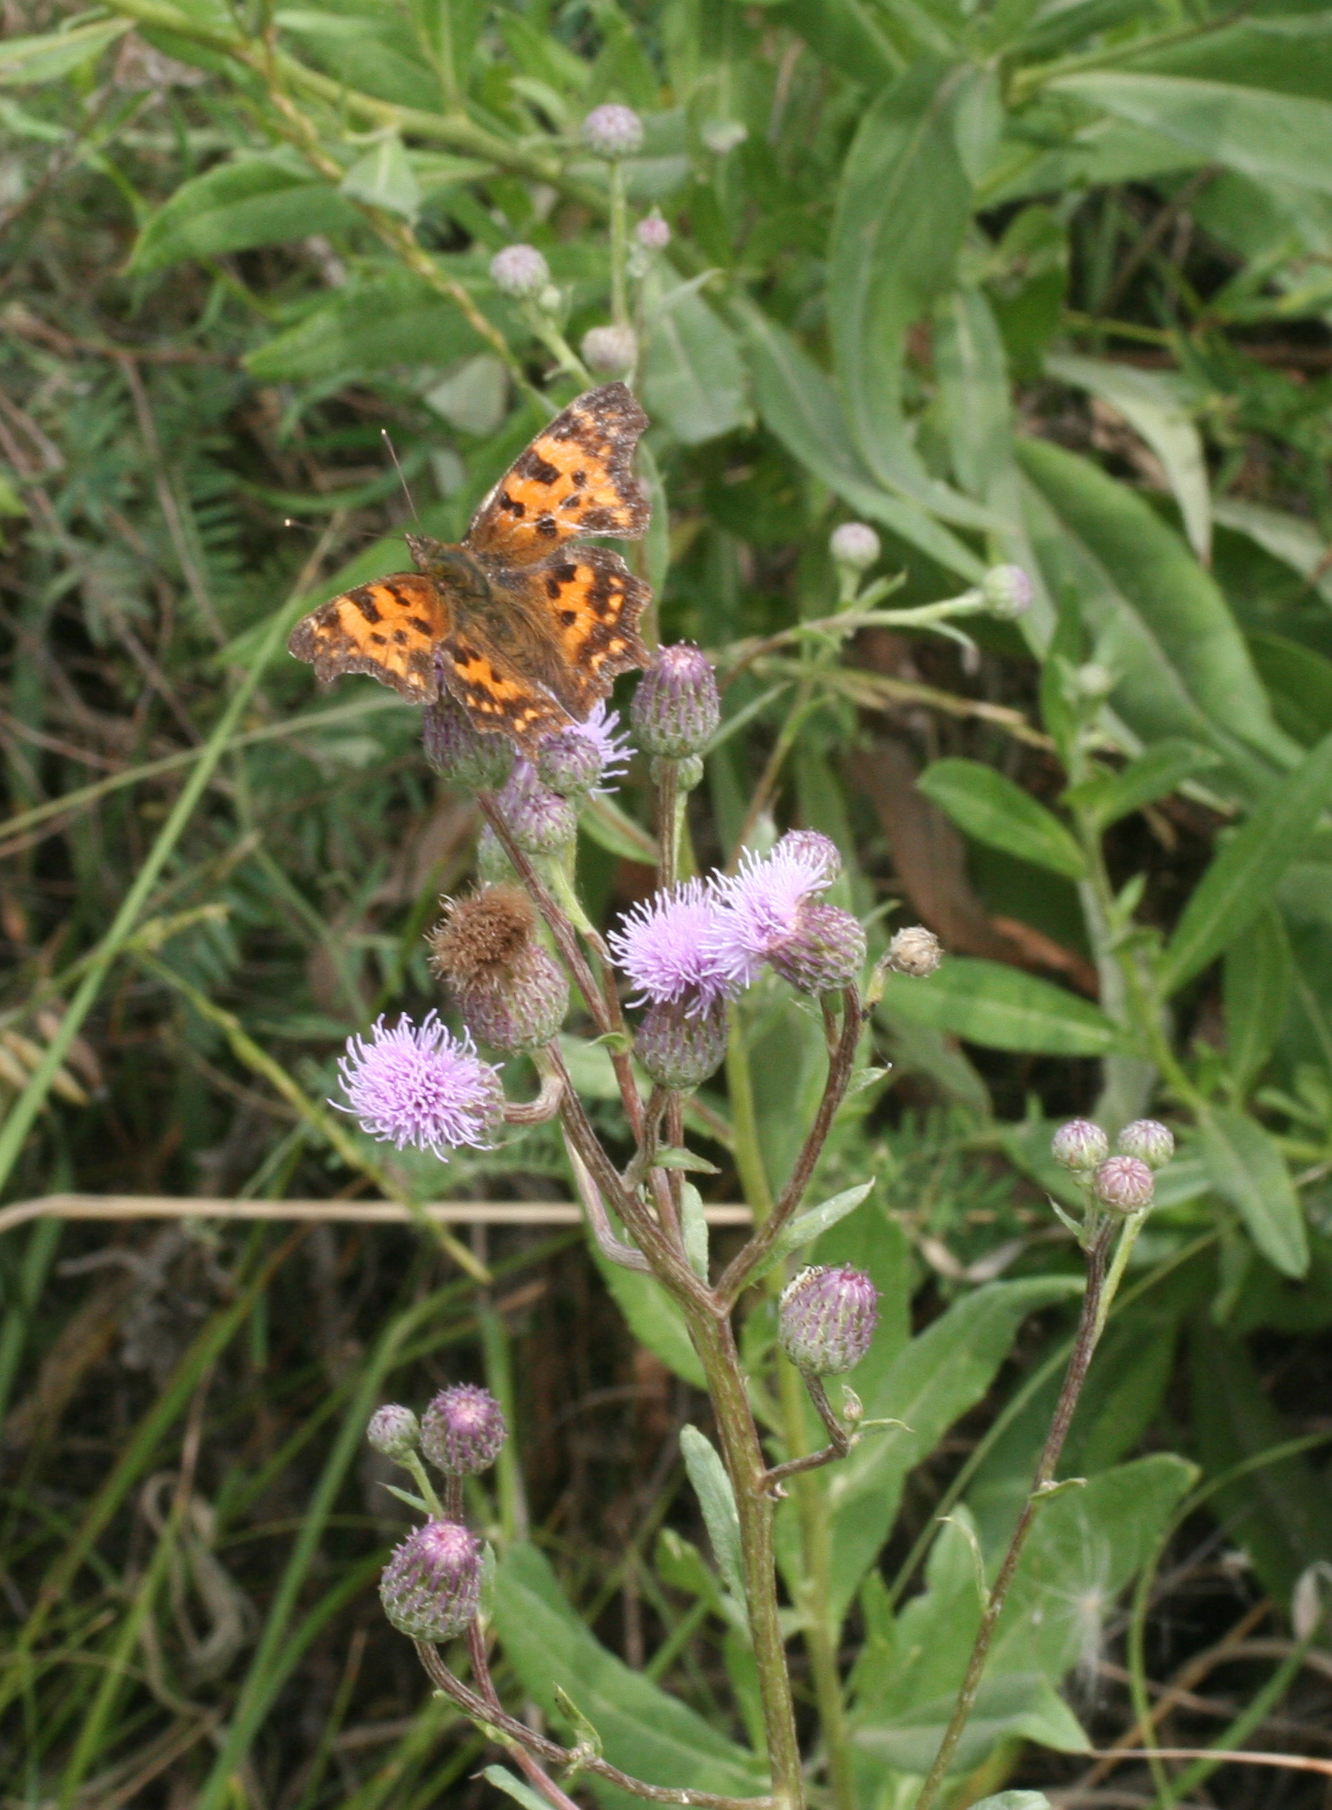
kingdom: Plantae
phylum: Tracheophyta
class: Magnoliopsida
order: Asterales
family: Asteraceae
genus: Cirsium
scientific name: Cirsium arvense
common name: Creeping thistle
